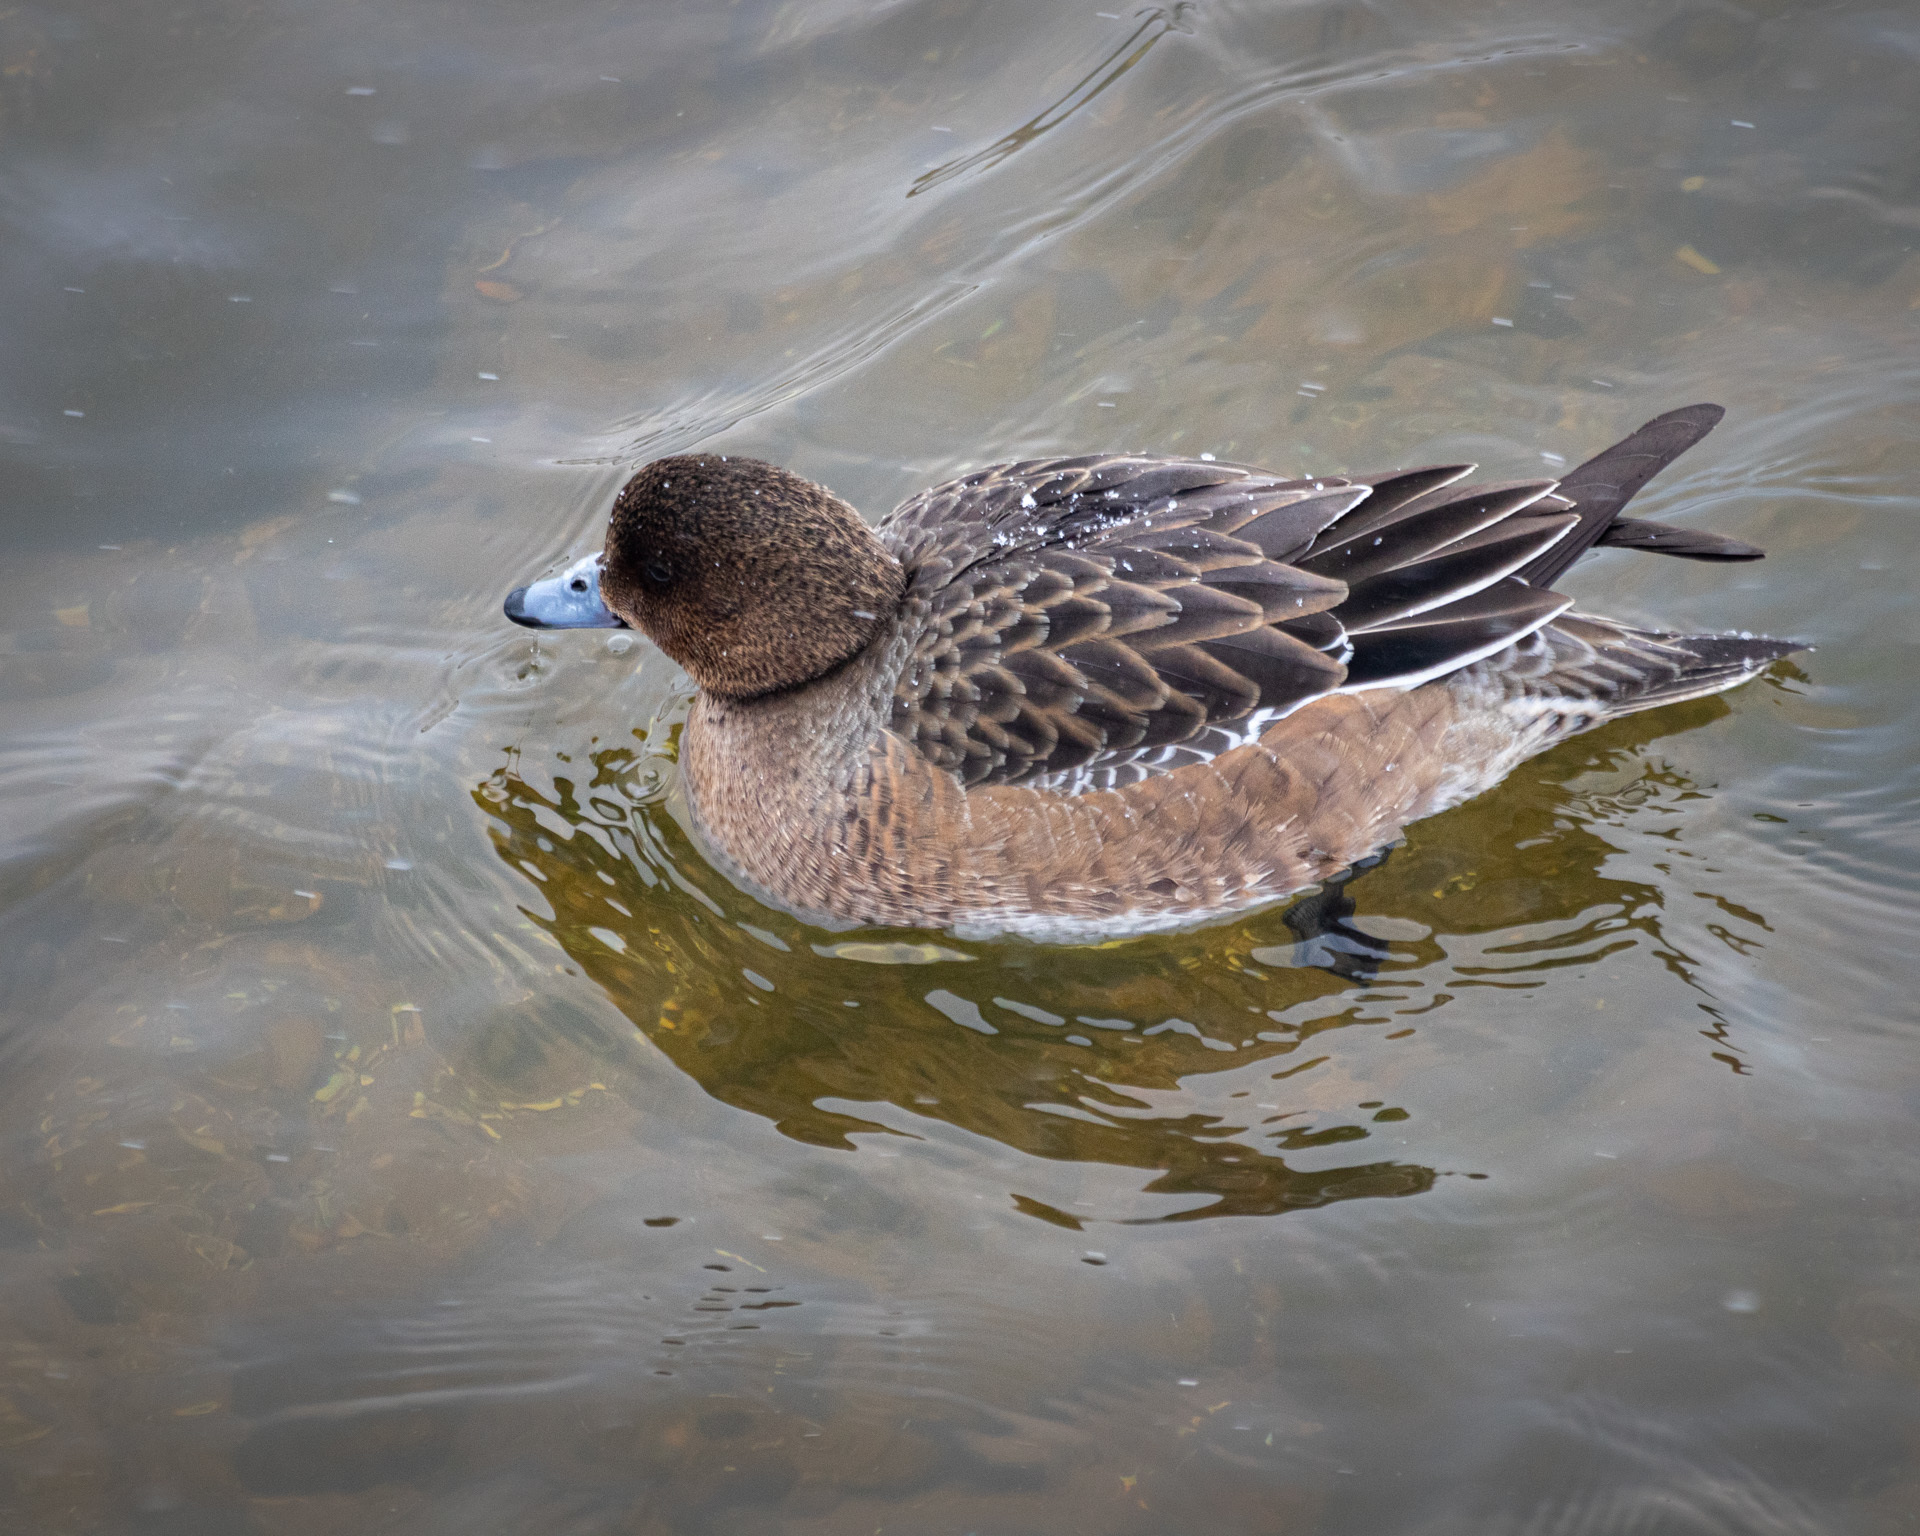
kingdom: Animalia
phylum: Chordata
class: Aves
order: Anseriformes
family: Anatidae
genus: Mareca
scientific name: Mareca penelope
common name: Eurasian wigeon
